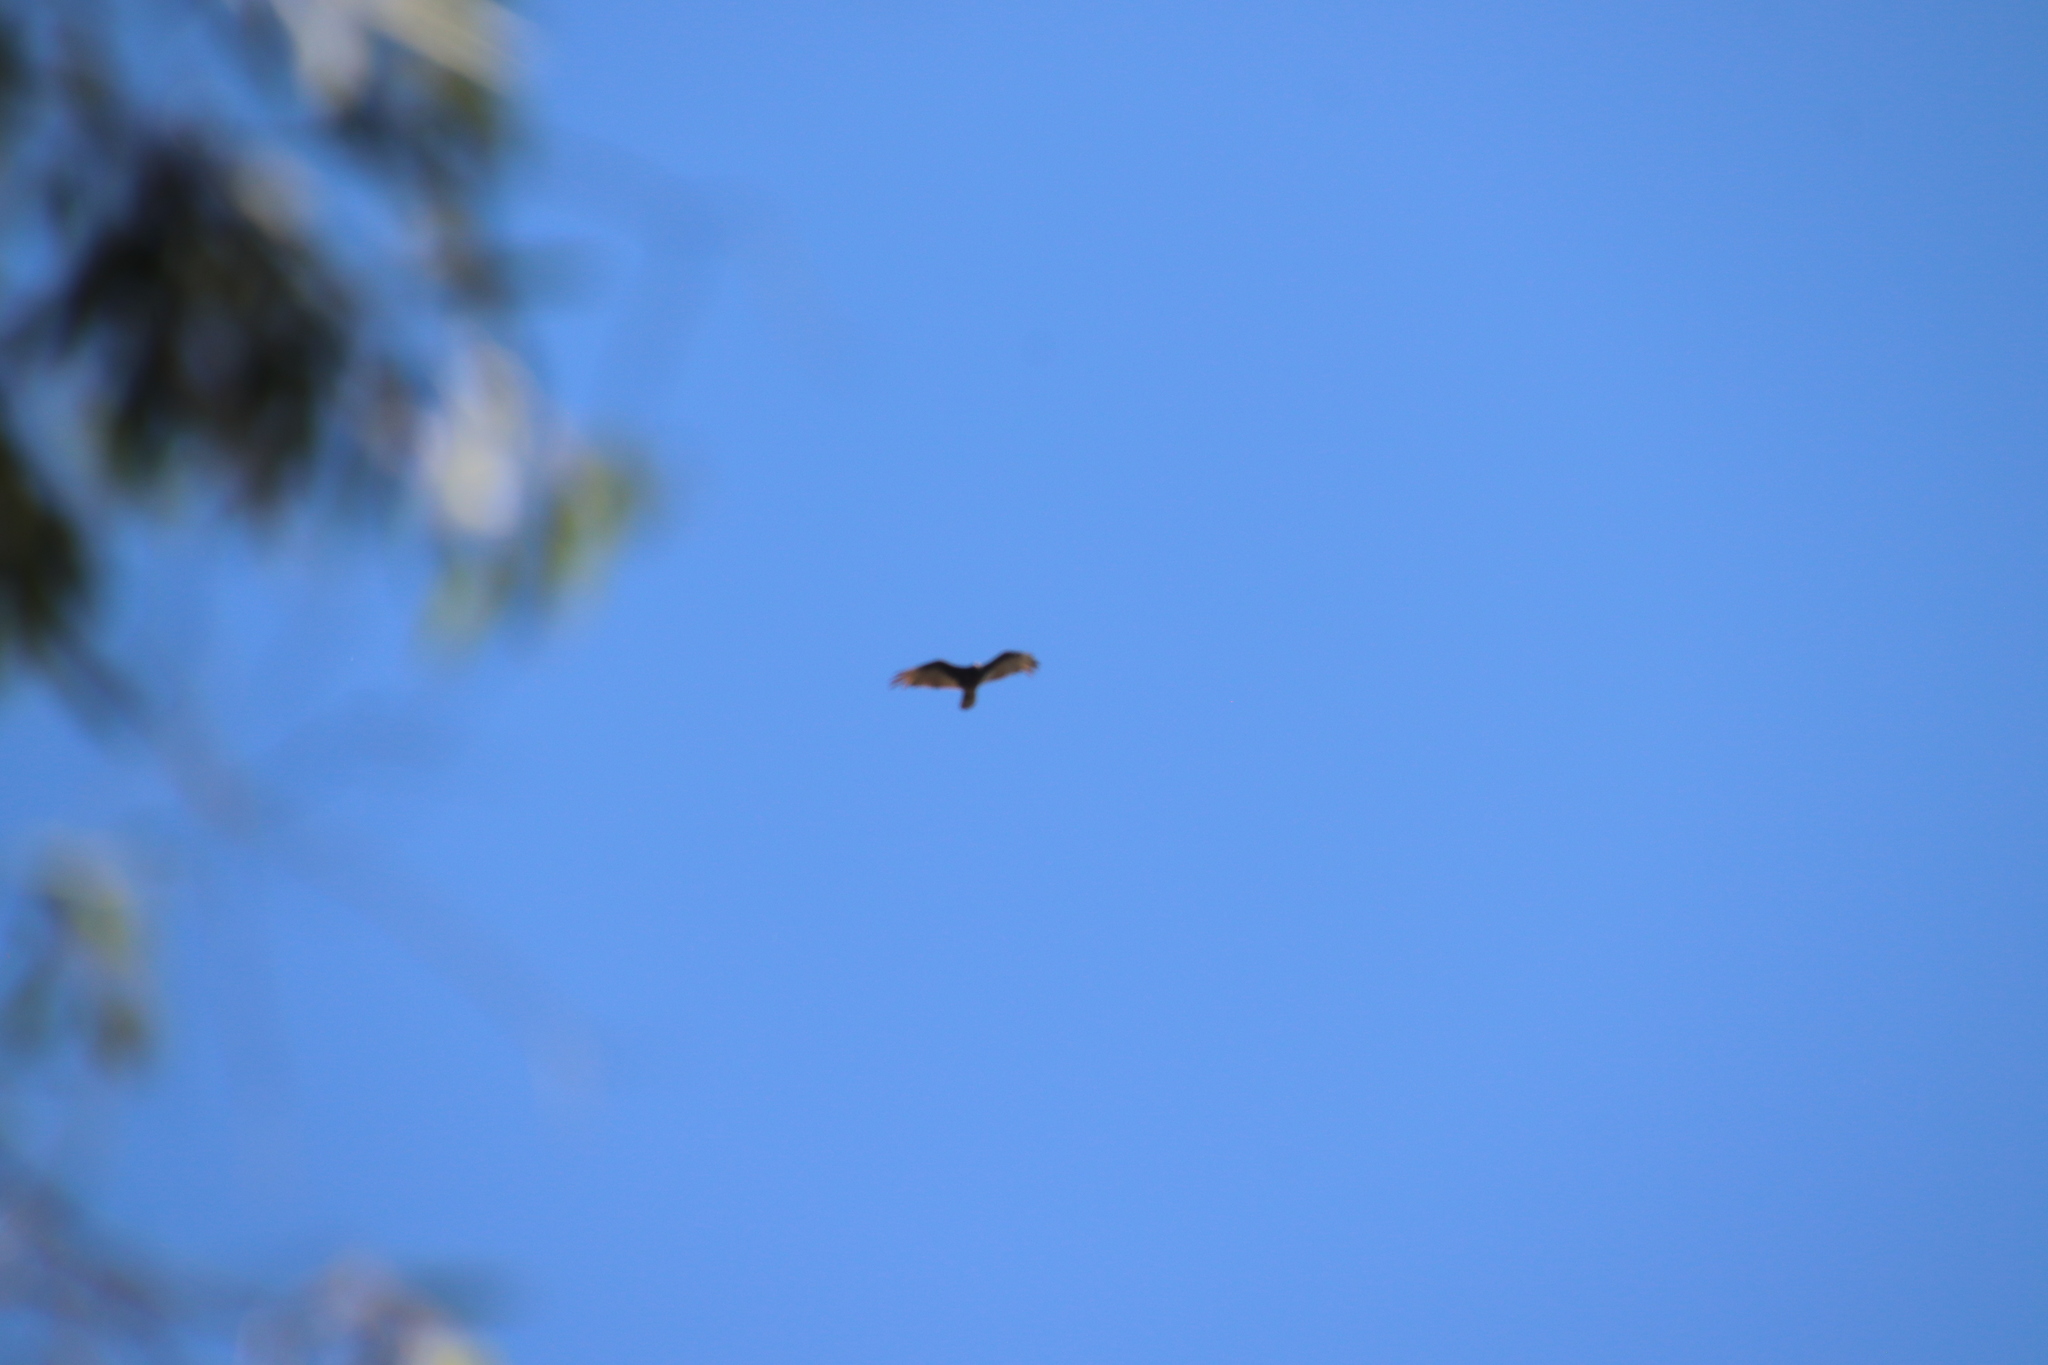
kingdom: Animalia
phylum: Chordata
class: Aves
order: Accipitriformes
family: Cathartidae
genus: Cathartes
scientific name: Cathartes aura
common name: Turkey vulture
